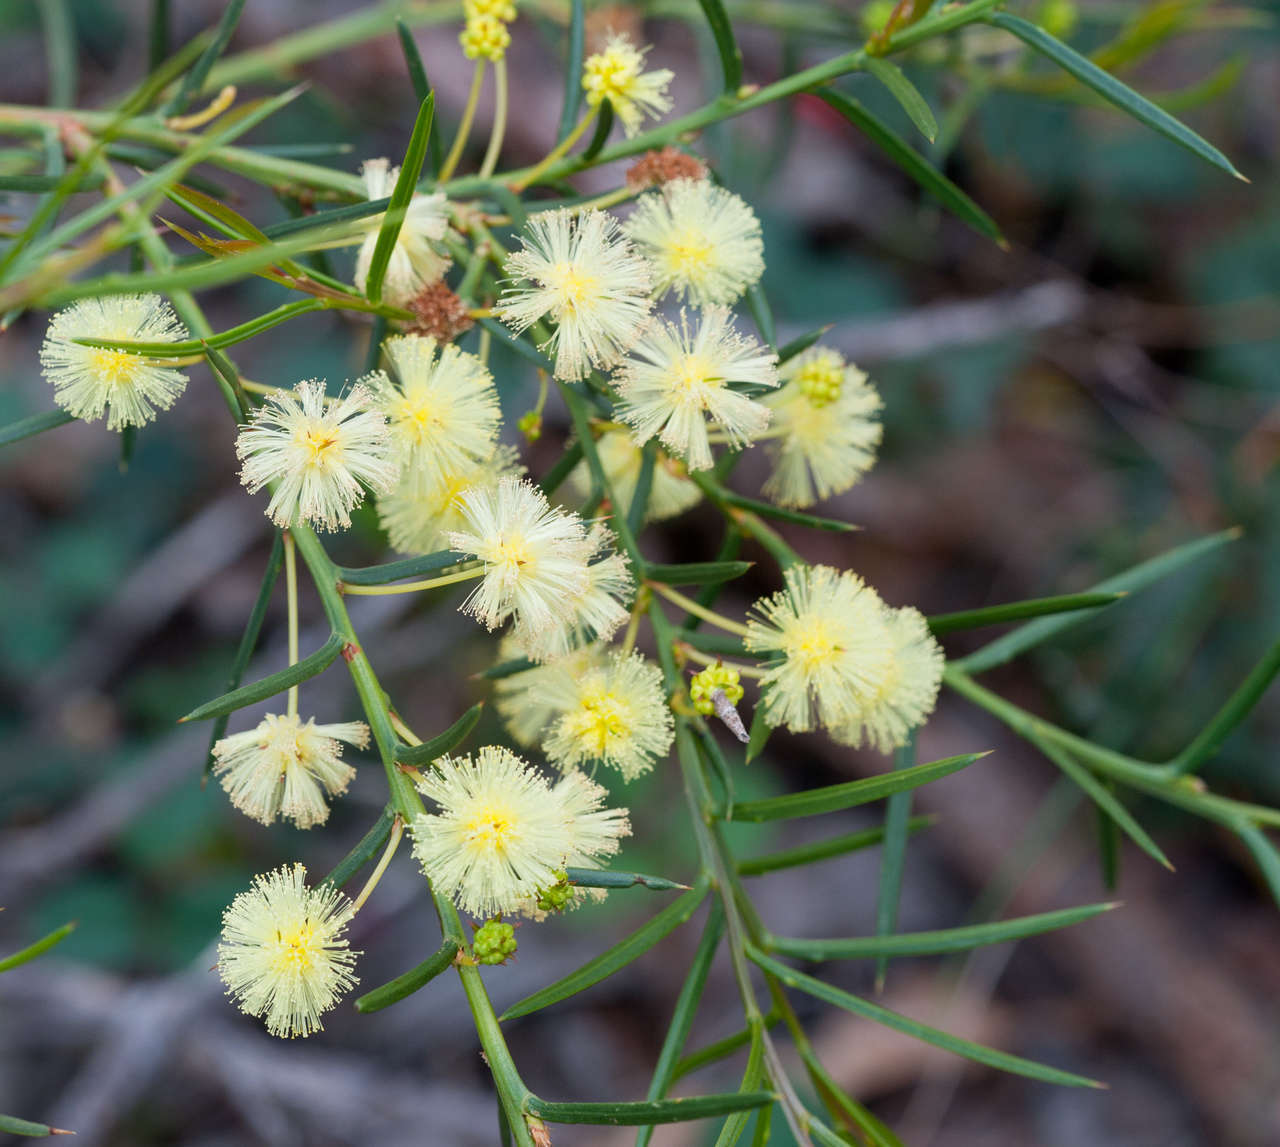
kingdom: Plantae
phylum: Tracheophyta
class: Magnoliopsida
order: Fabales
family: Fabaceae
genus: Acacia
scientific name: Acacia genistifolia
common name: Early wattle
